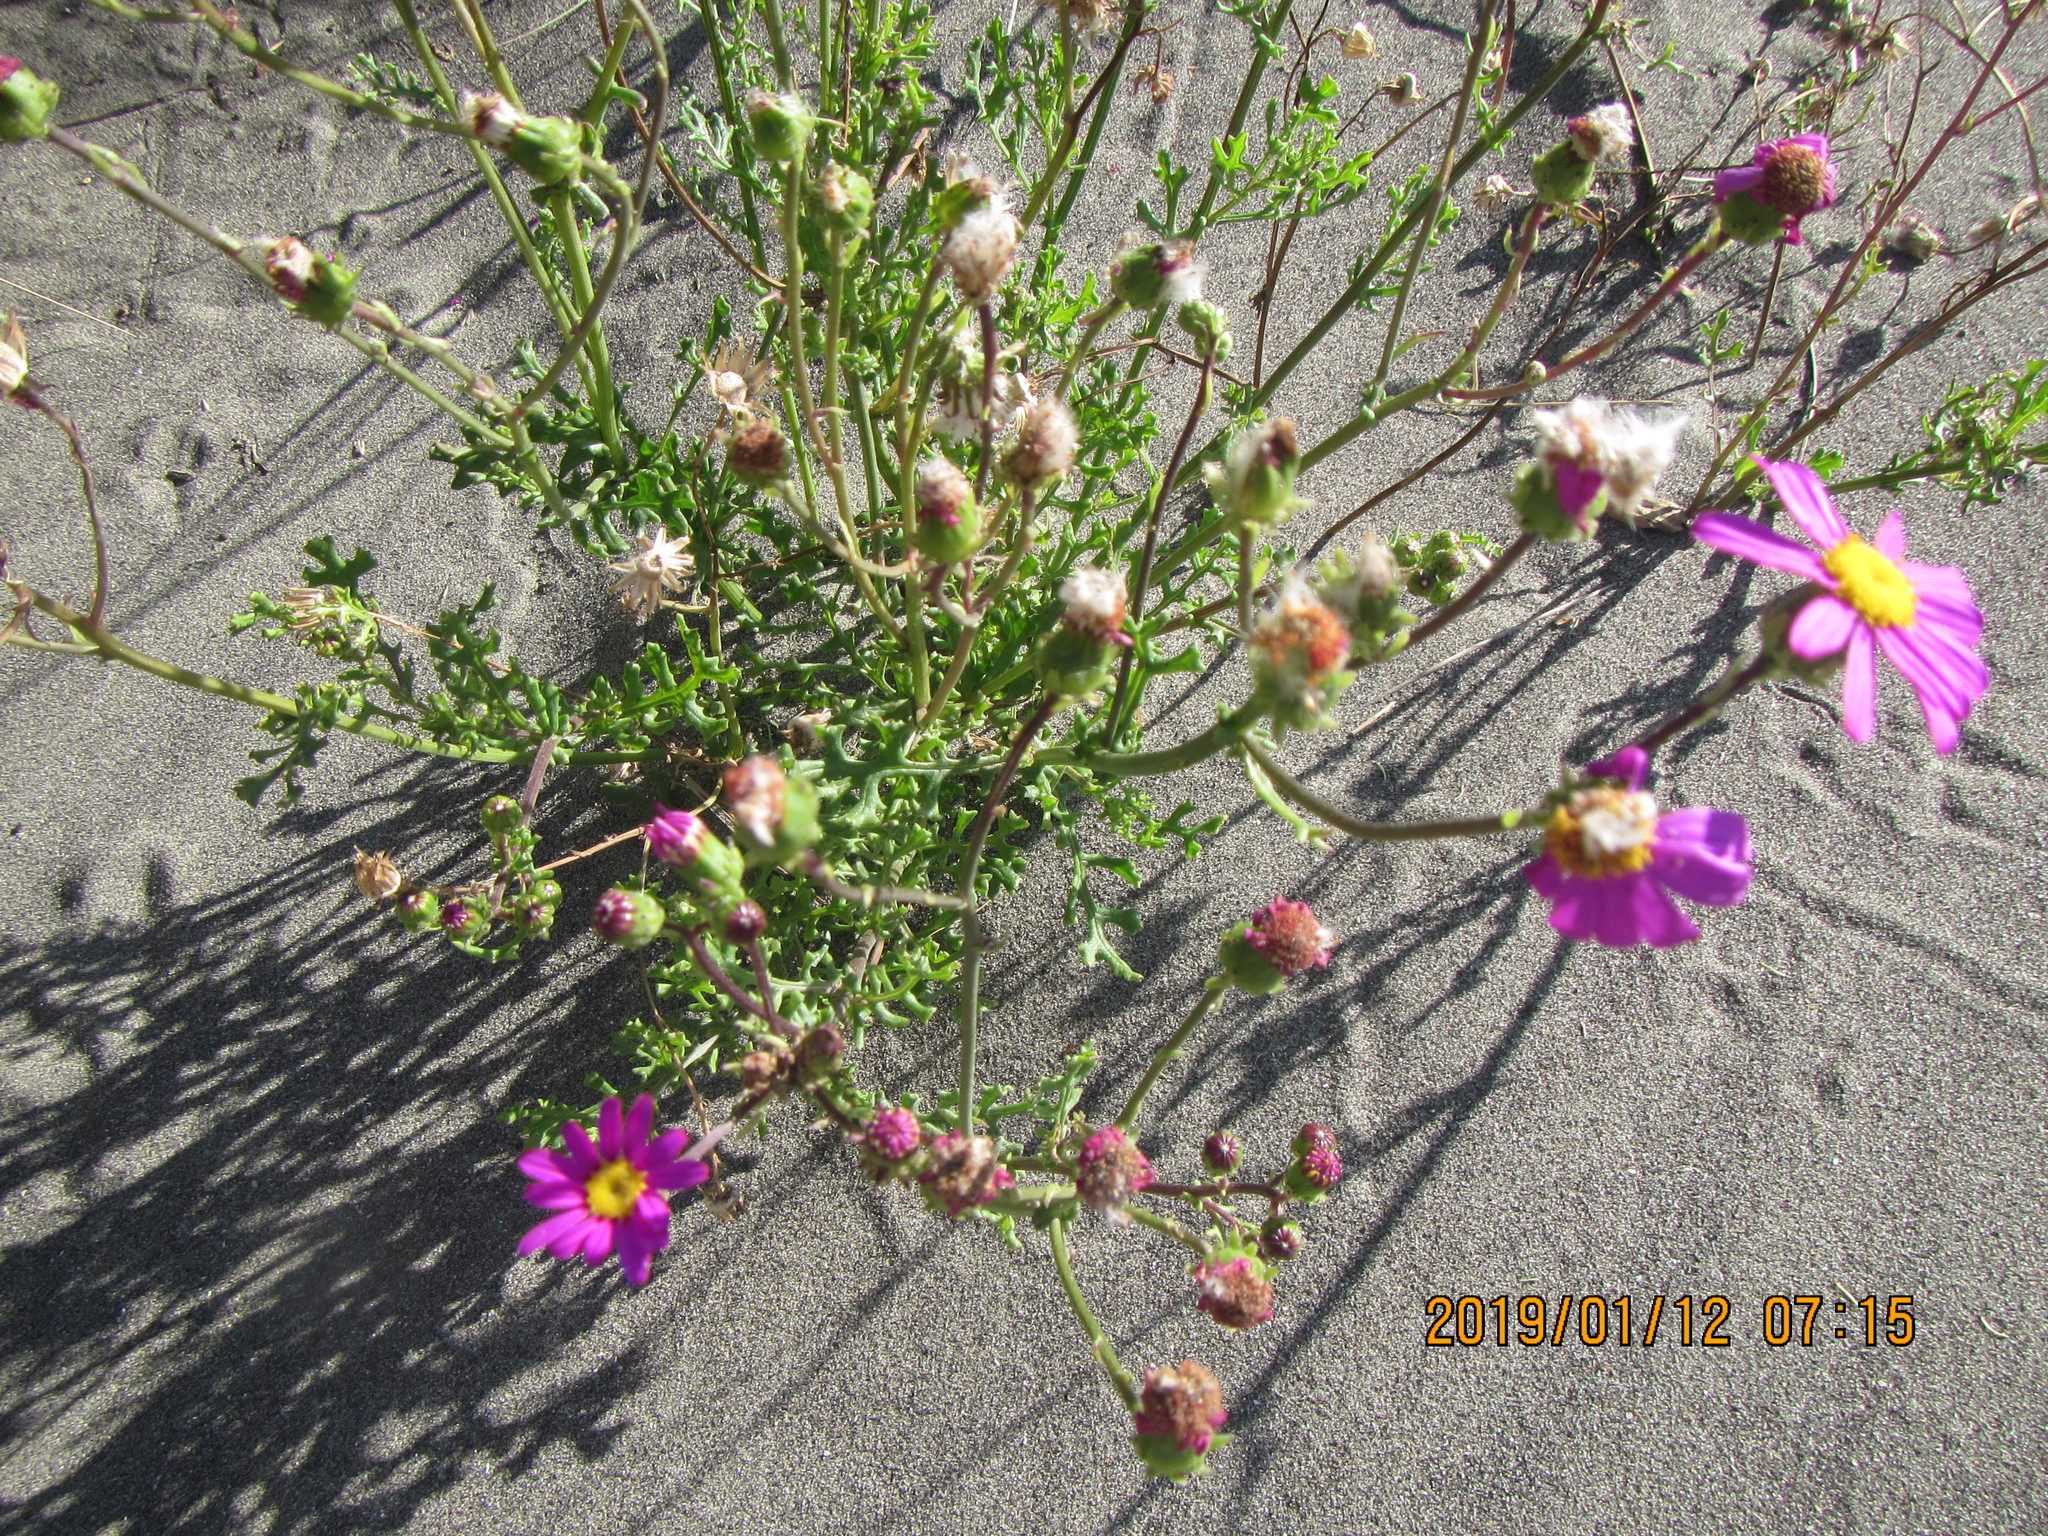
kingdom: Plantae
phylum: Tracheophyta
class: Magnoliopsida
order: Asterales
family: Asteraceae
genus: Senecio
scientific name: Senecio elegans
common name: Purple groundsel
